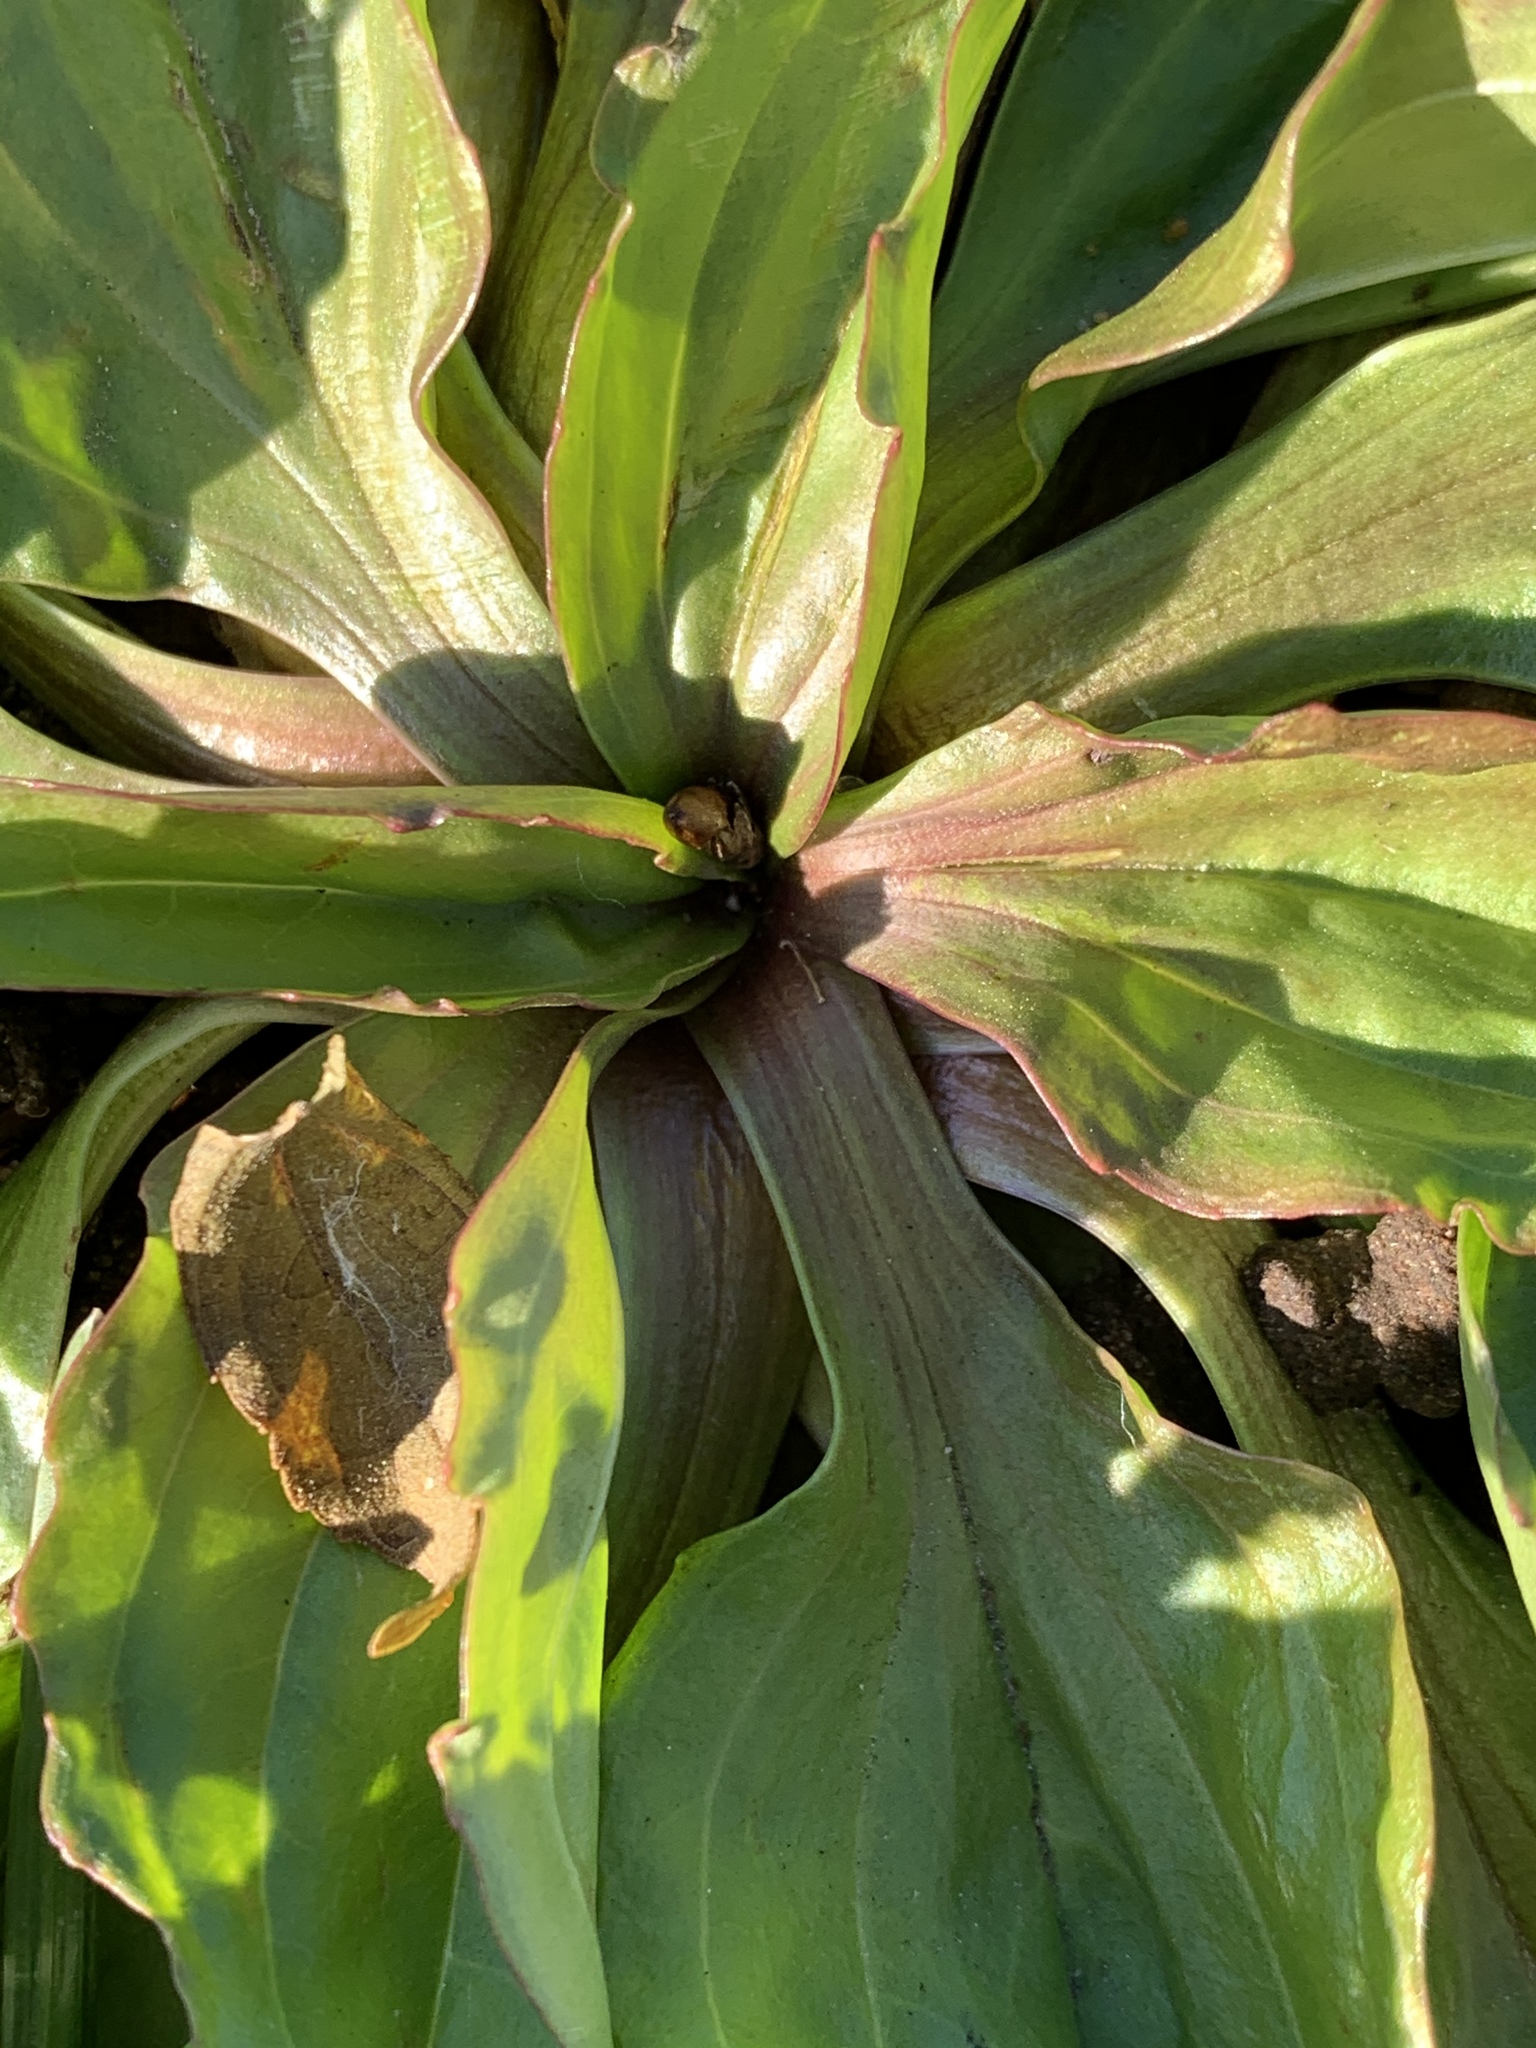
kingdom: Plantae
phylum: Tracheophyta
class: Magnoliopsida
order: Lamiales
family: Plantaginaceae
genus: Plantago
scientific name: Plantago rugelii
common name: American plantain
